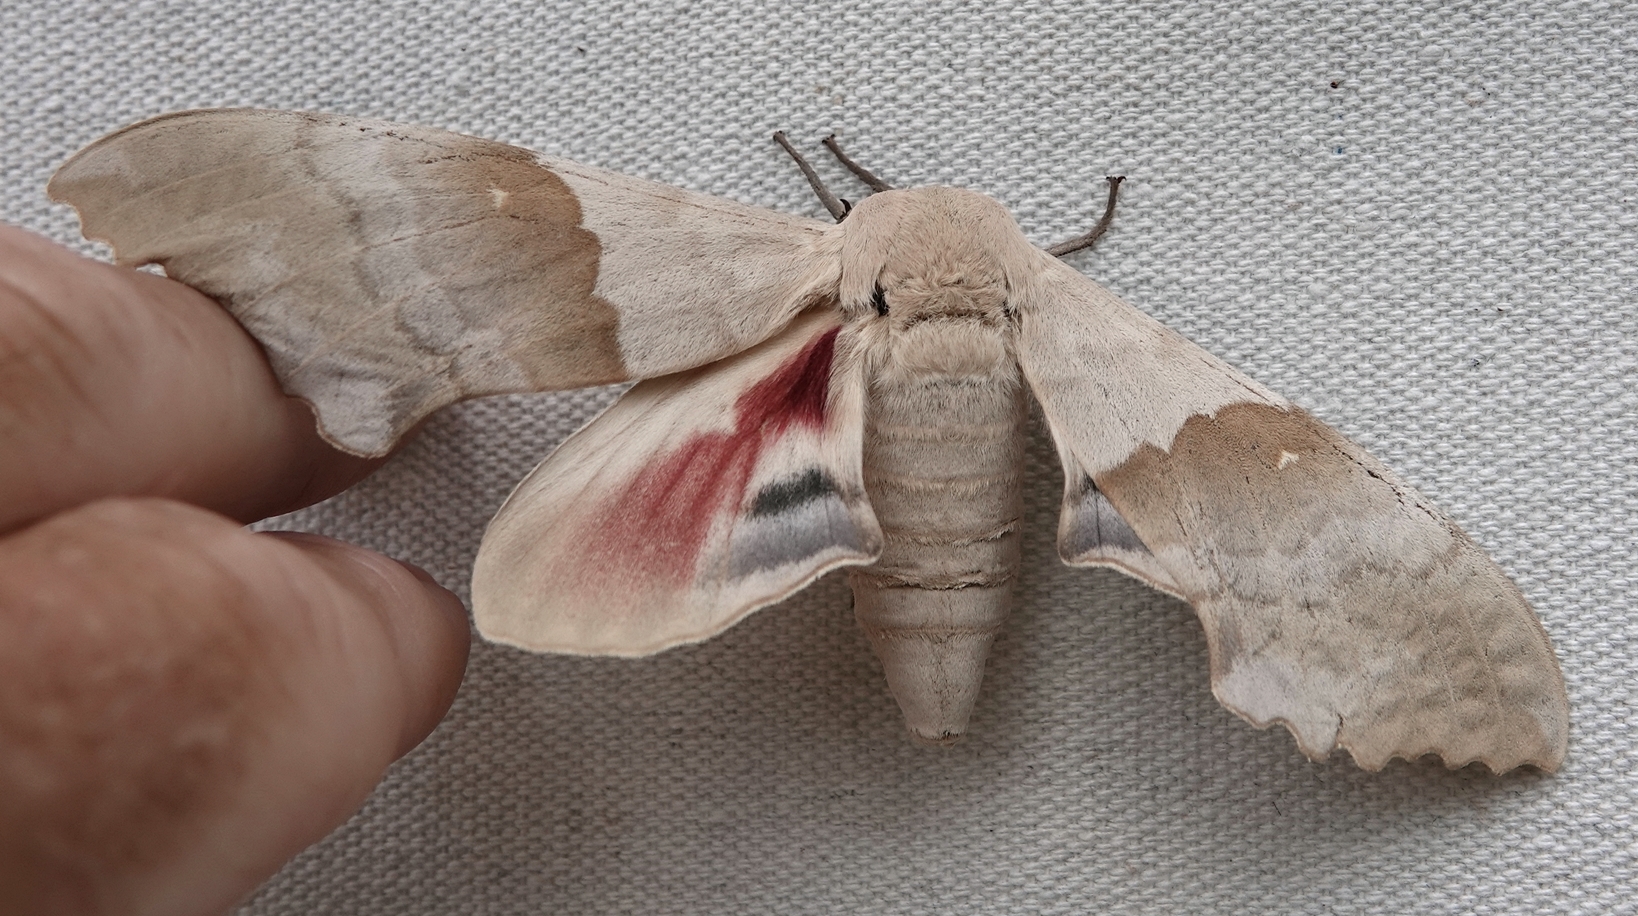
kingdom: Animalia
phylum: Arthropoda
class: Insecta
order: Lepidoptera
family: Sphingidae
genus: Pachysphinx
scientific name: Pachysphinx modesta
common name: Big poplar sphinx
